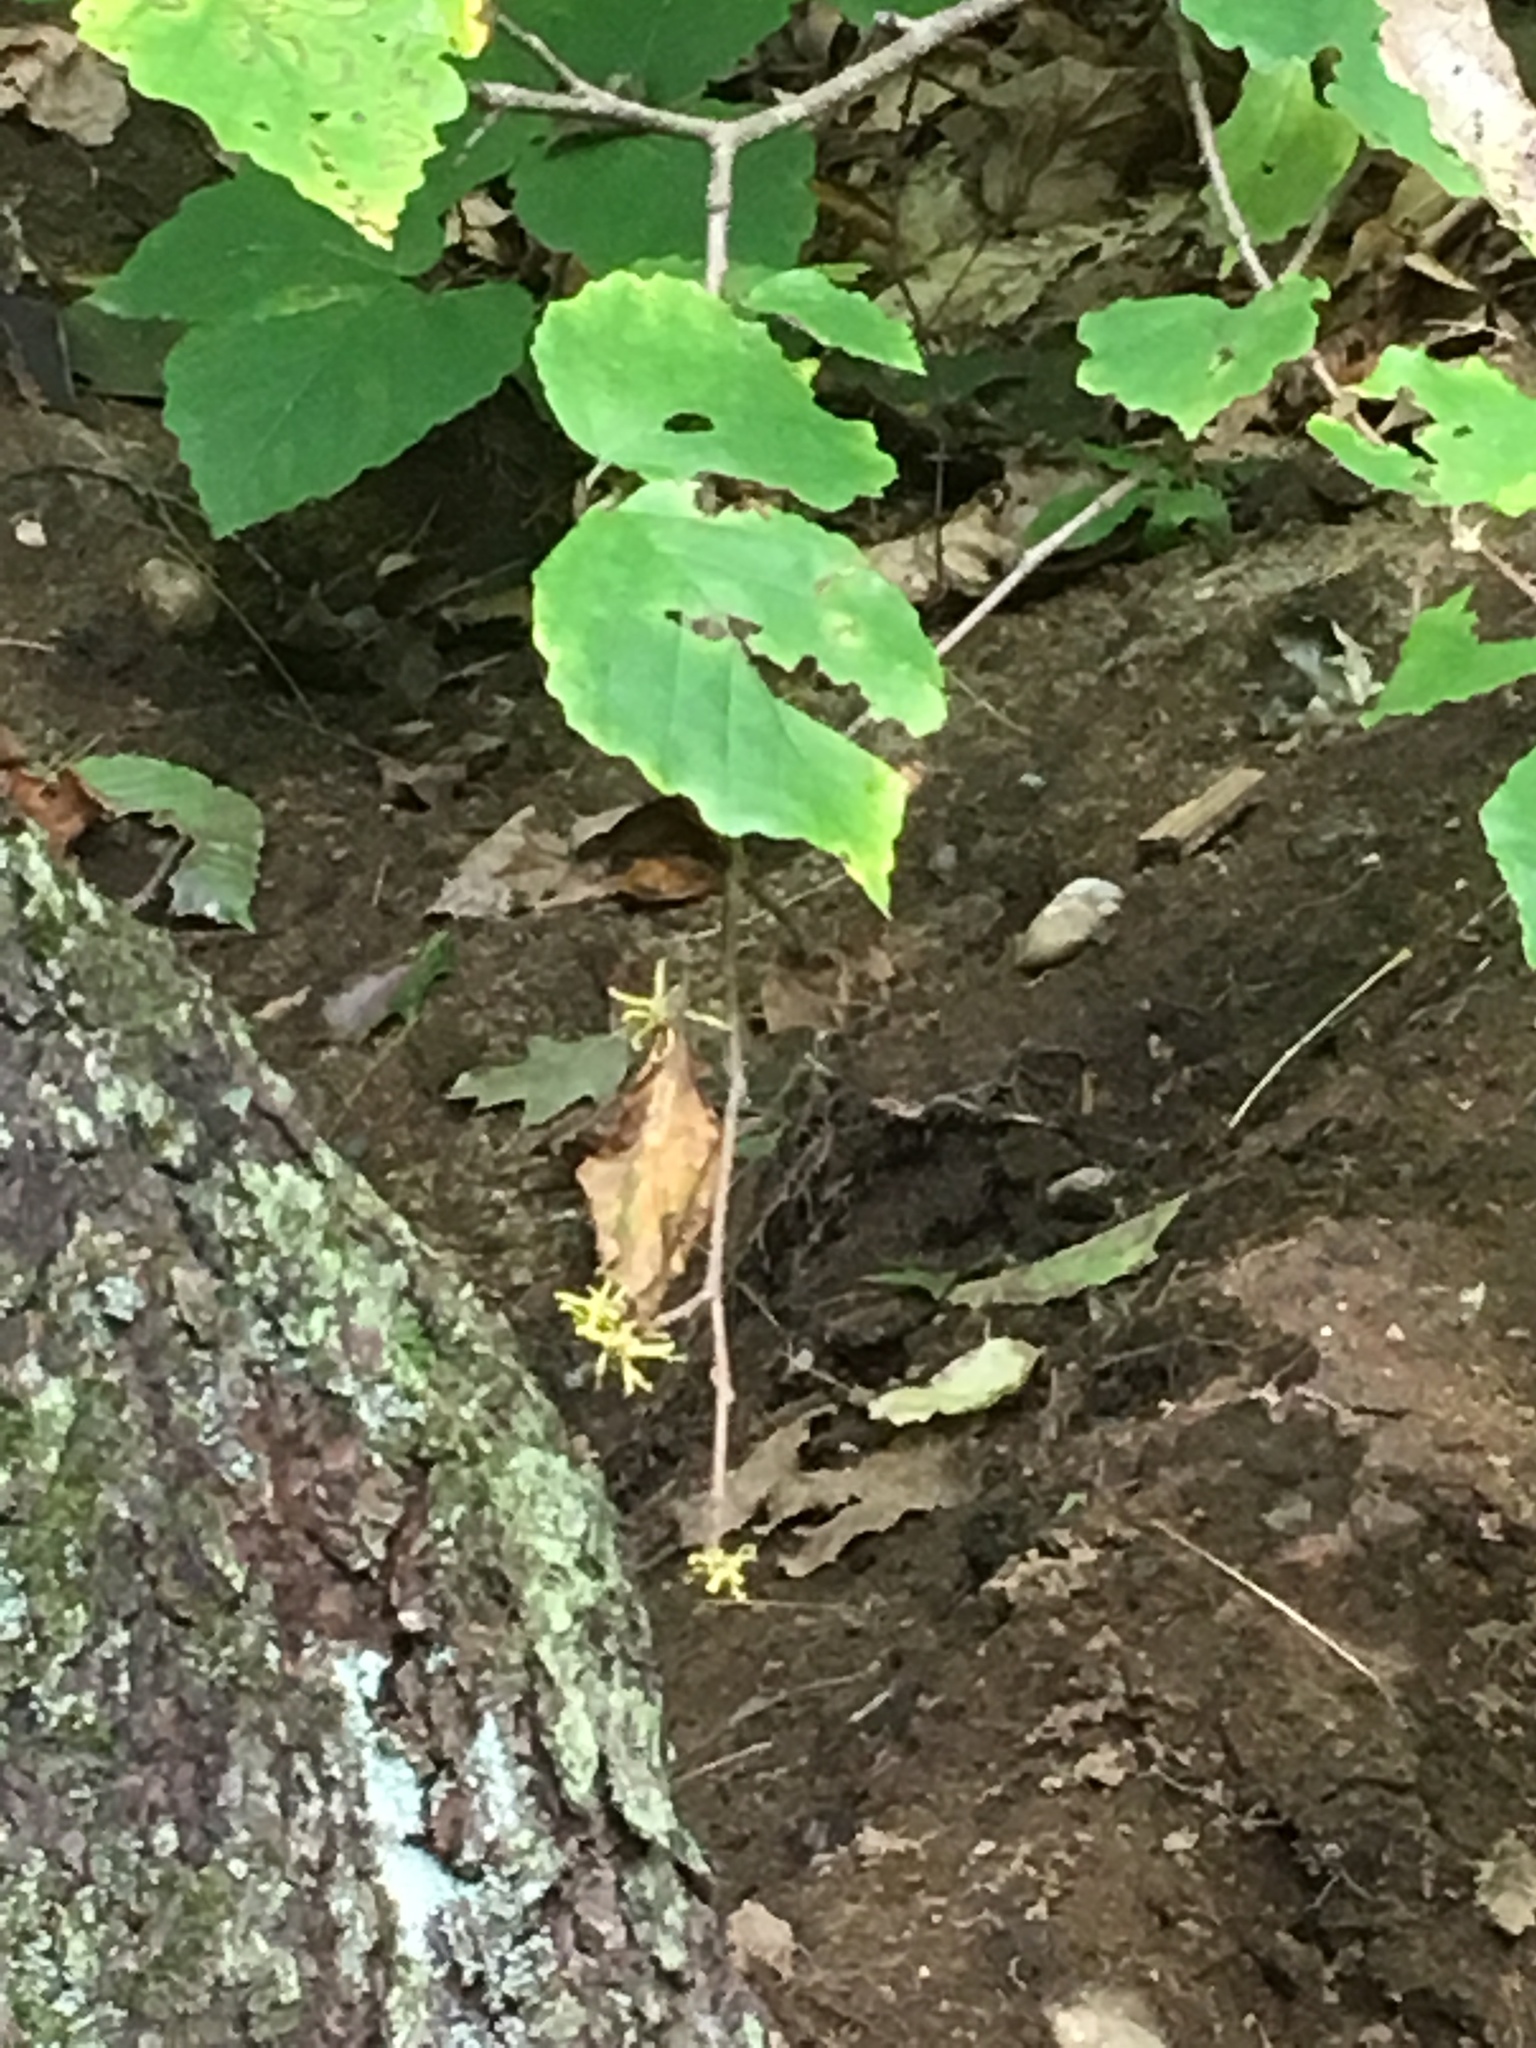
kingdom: Plantae
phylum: Tracheophyta
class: Magnoliopsida
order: Saxifragales
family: Hamamelidaceae
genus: Hamamelis
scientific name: Hamamelis virginiana
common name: Witch-hazel
